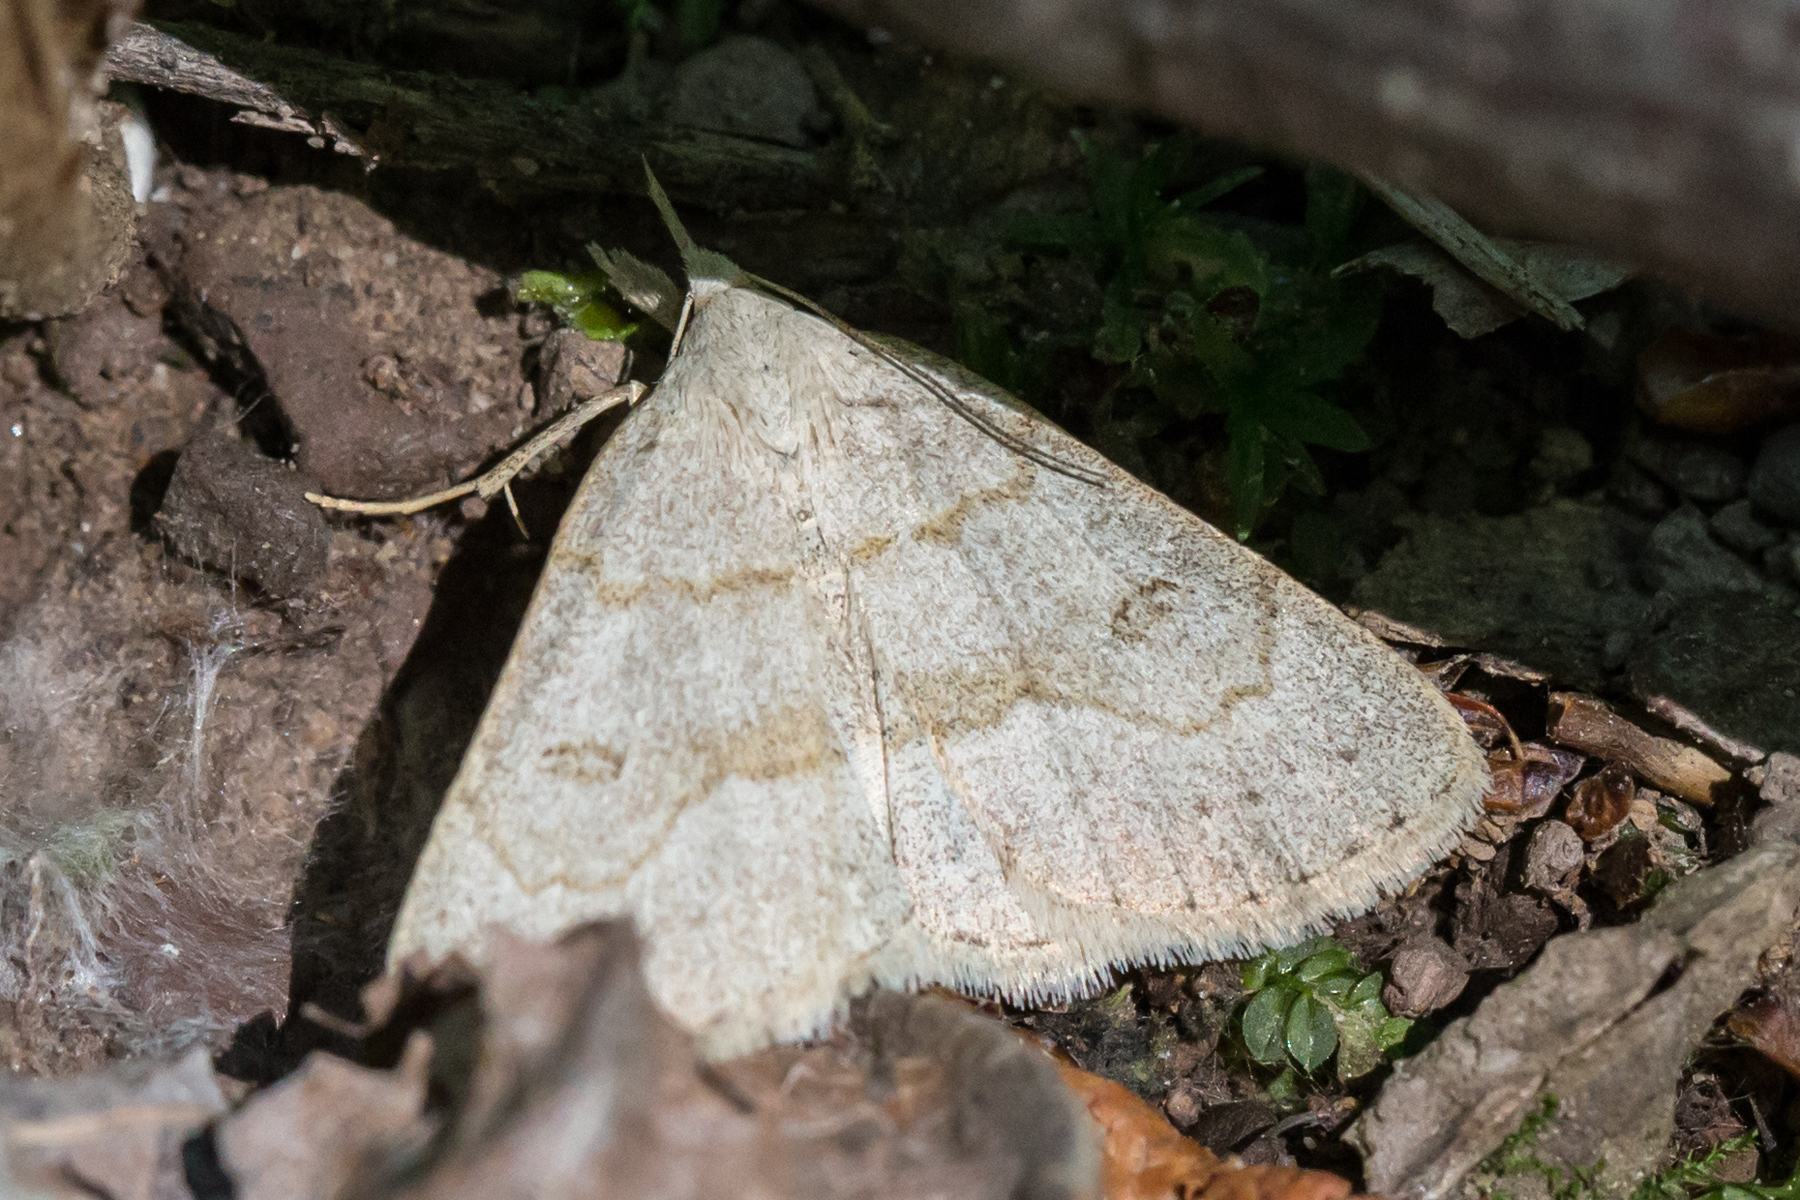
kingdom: Animalia
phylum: Arthropoda
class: Insecta
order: Lepidoptera
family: Erebidae
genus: Macrochilo
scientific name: Macrochilo morbidalis
